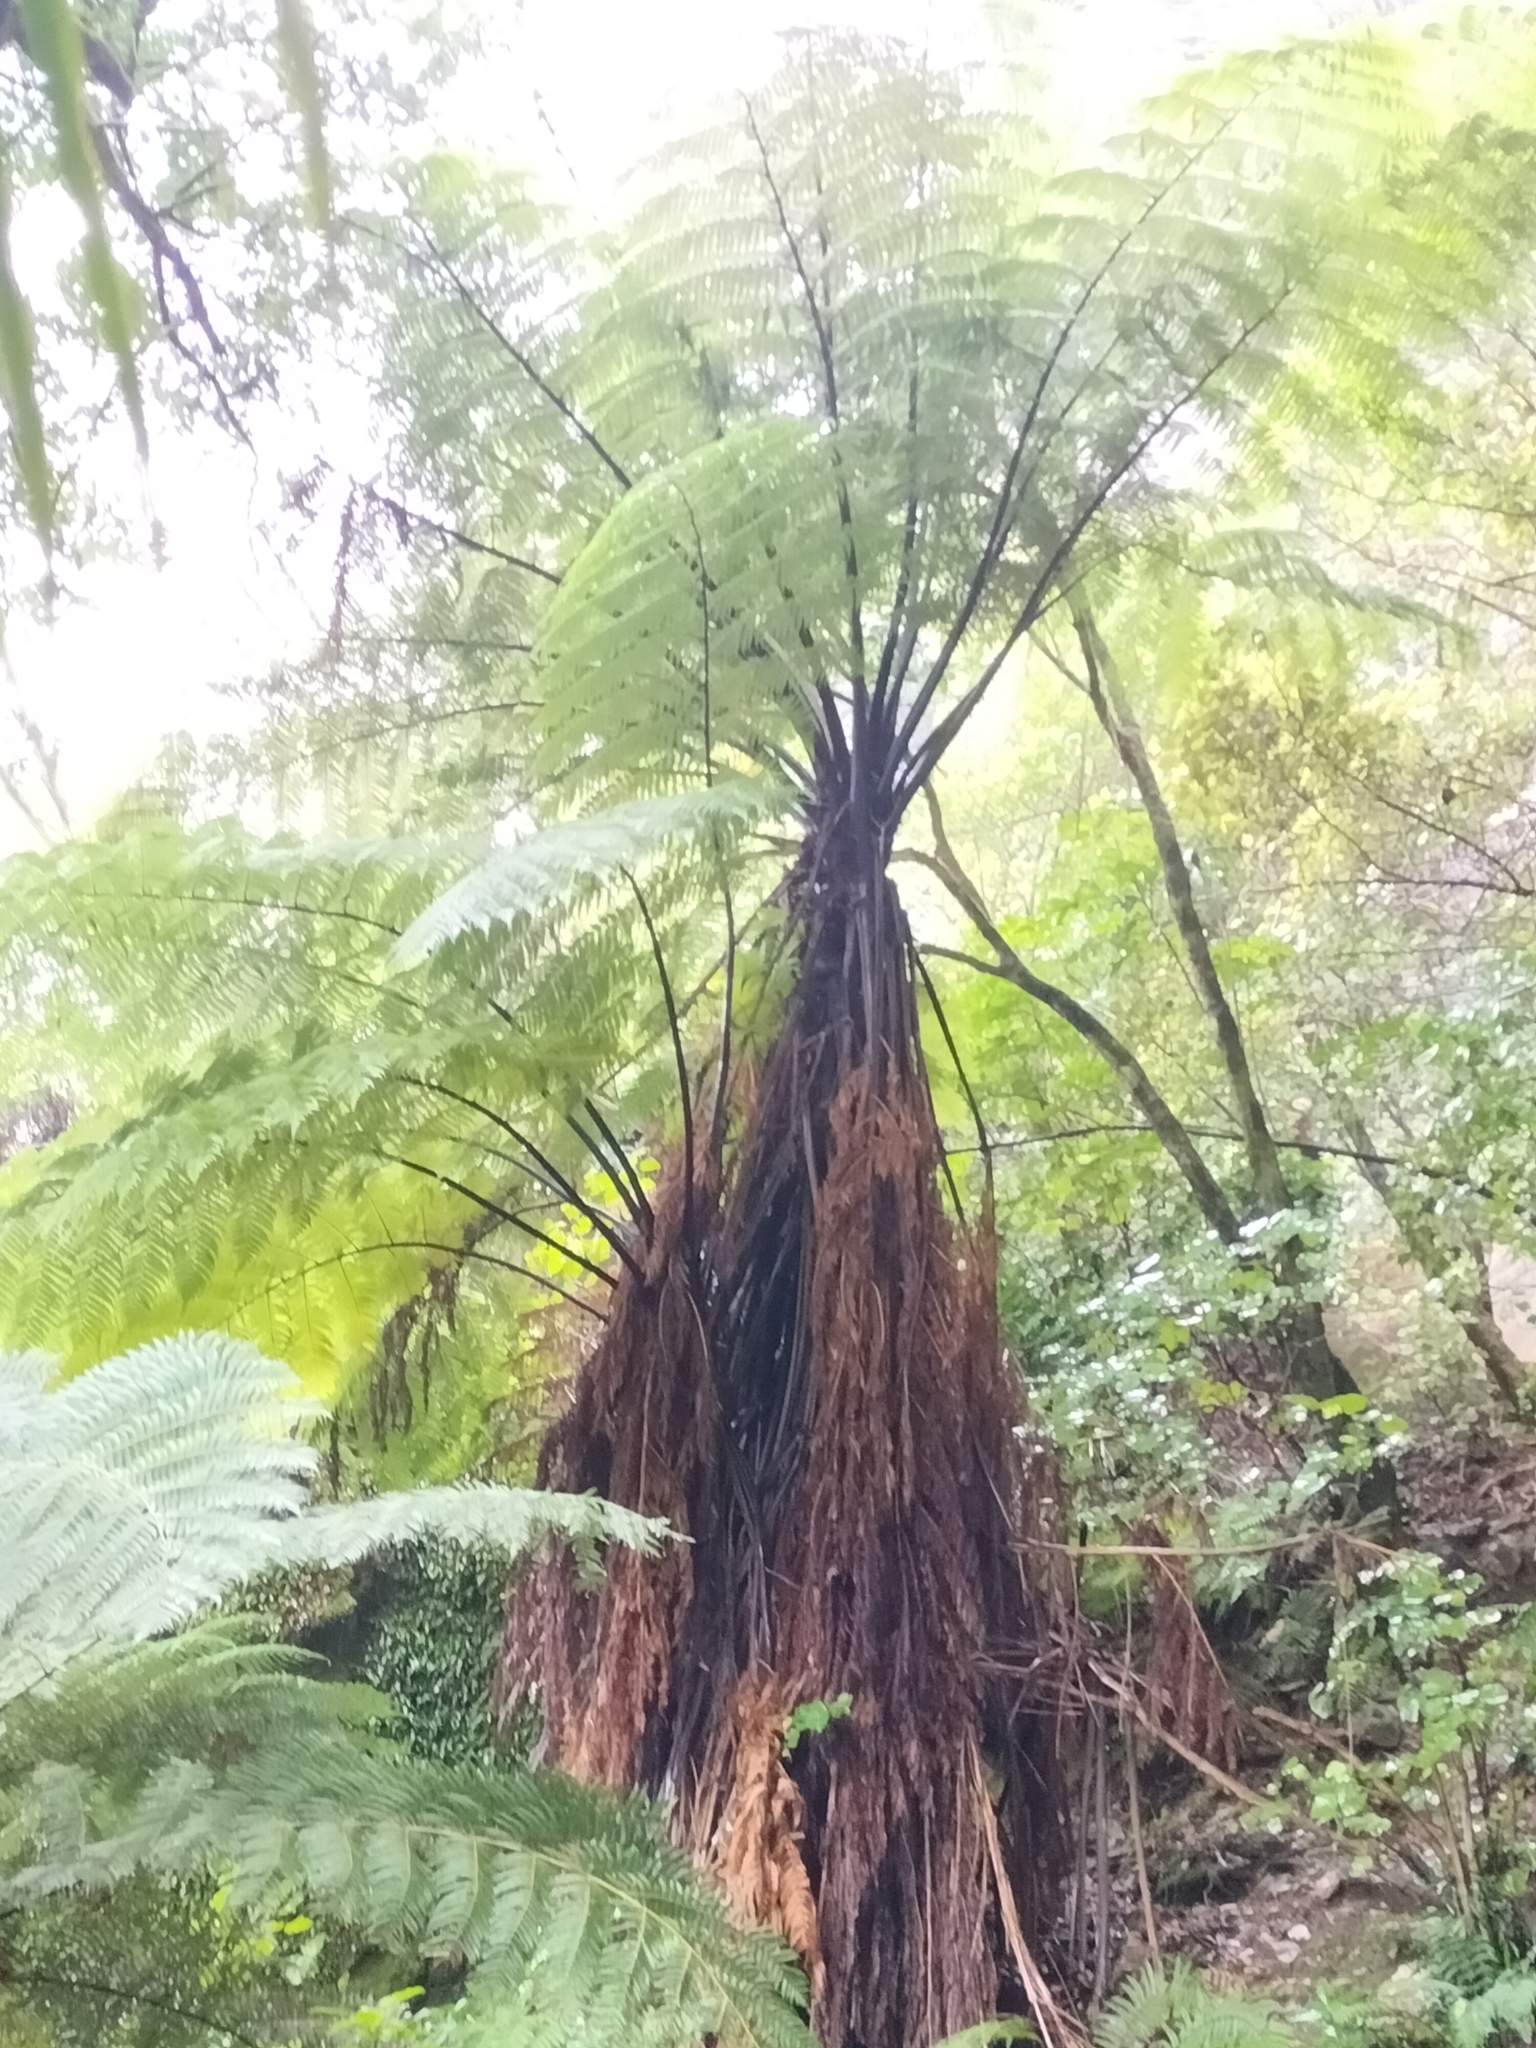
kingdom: Plantae
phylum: Tracheophyta
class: Polypodiopsida
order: Cyatheales
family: Cyatheaceae
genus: Sphaeropteris
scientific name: Sphaeropteris medullaris
